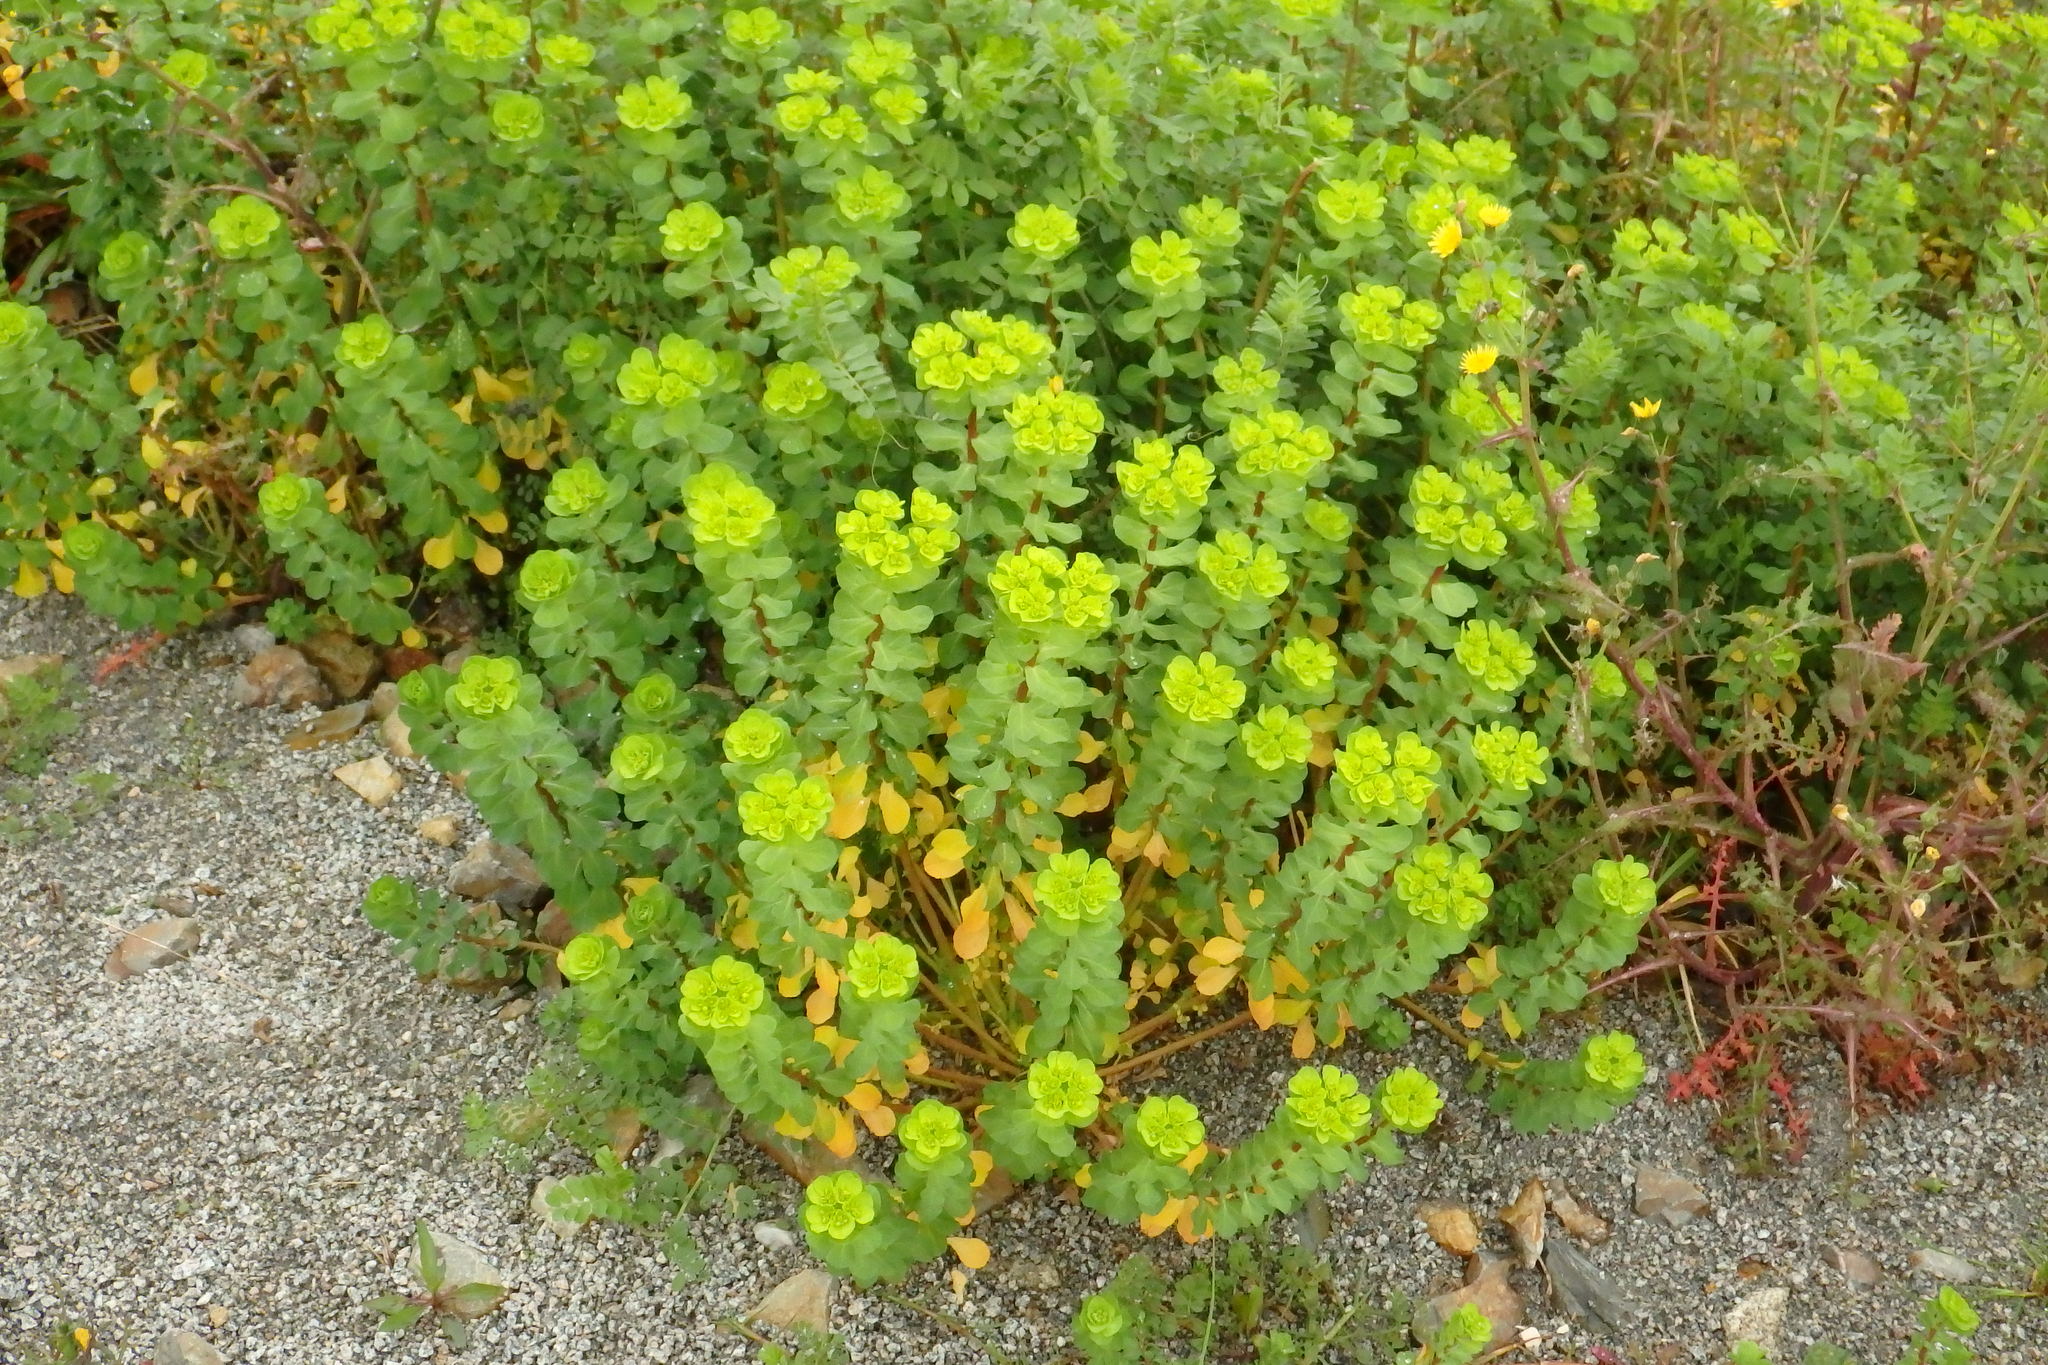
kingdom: Plantae
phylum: Tracheophyta
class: Magnoliopsida
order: Malpighiales
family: Euphorbiaceae
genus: Euphorbia
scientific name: Euphorbia helioscopia
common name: Sun spurge
